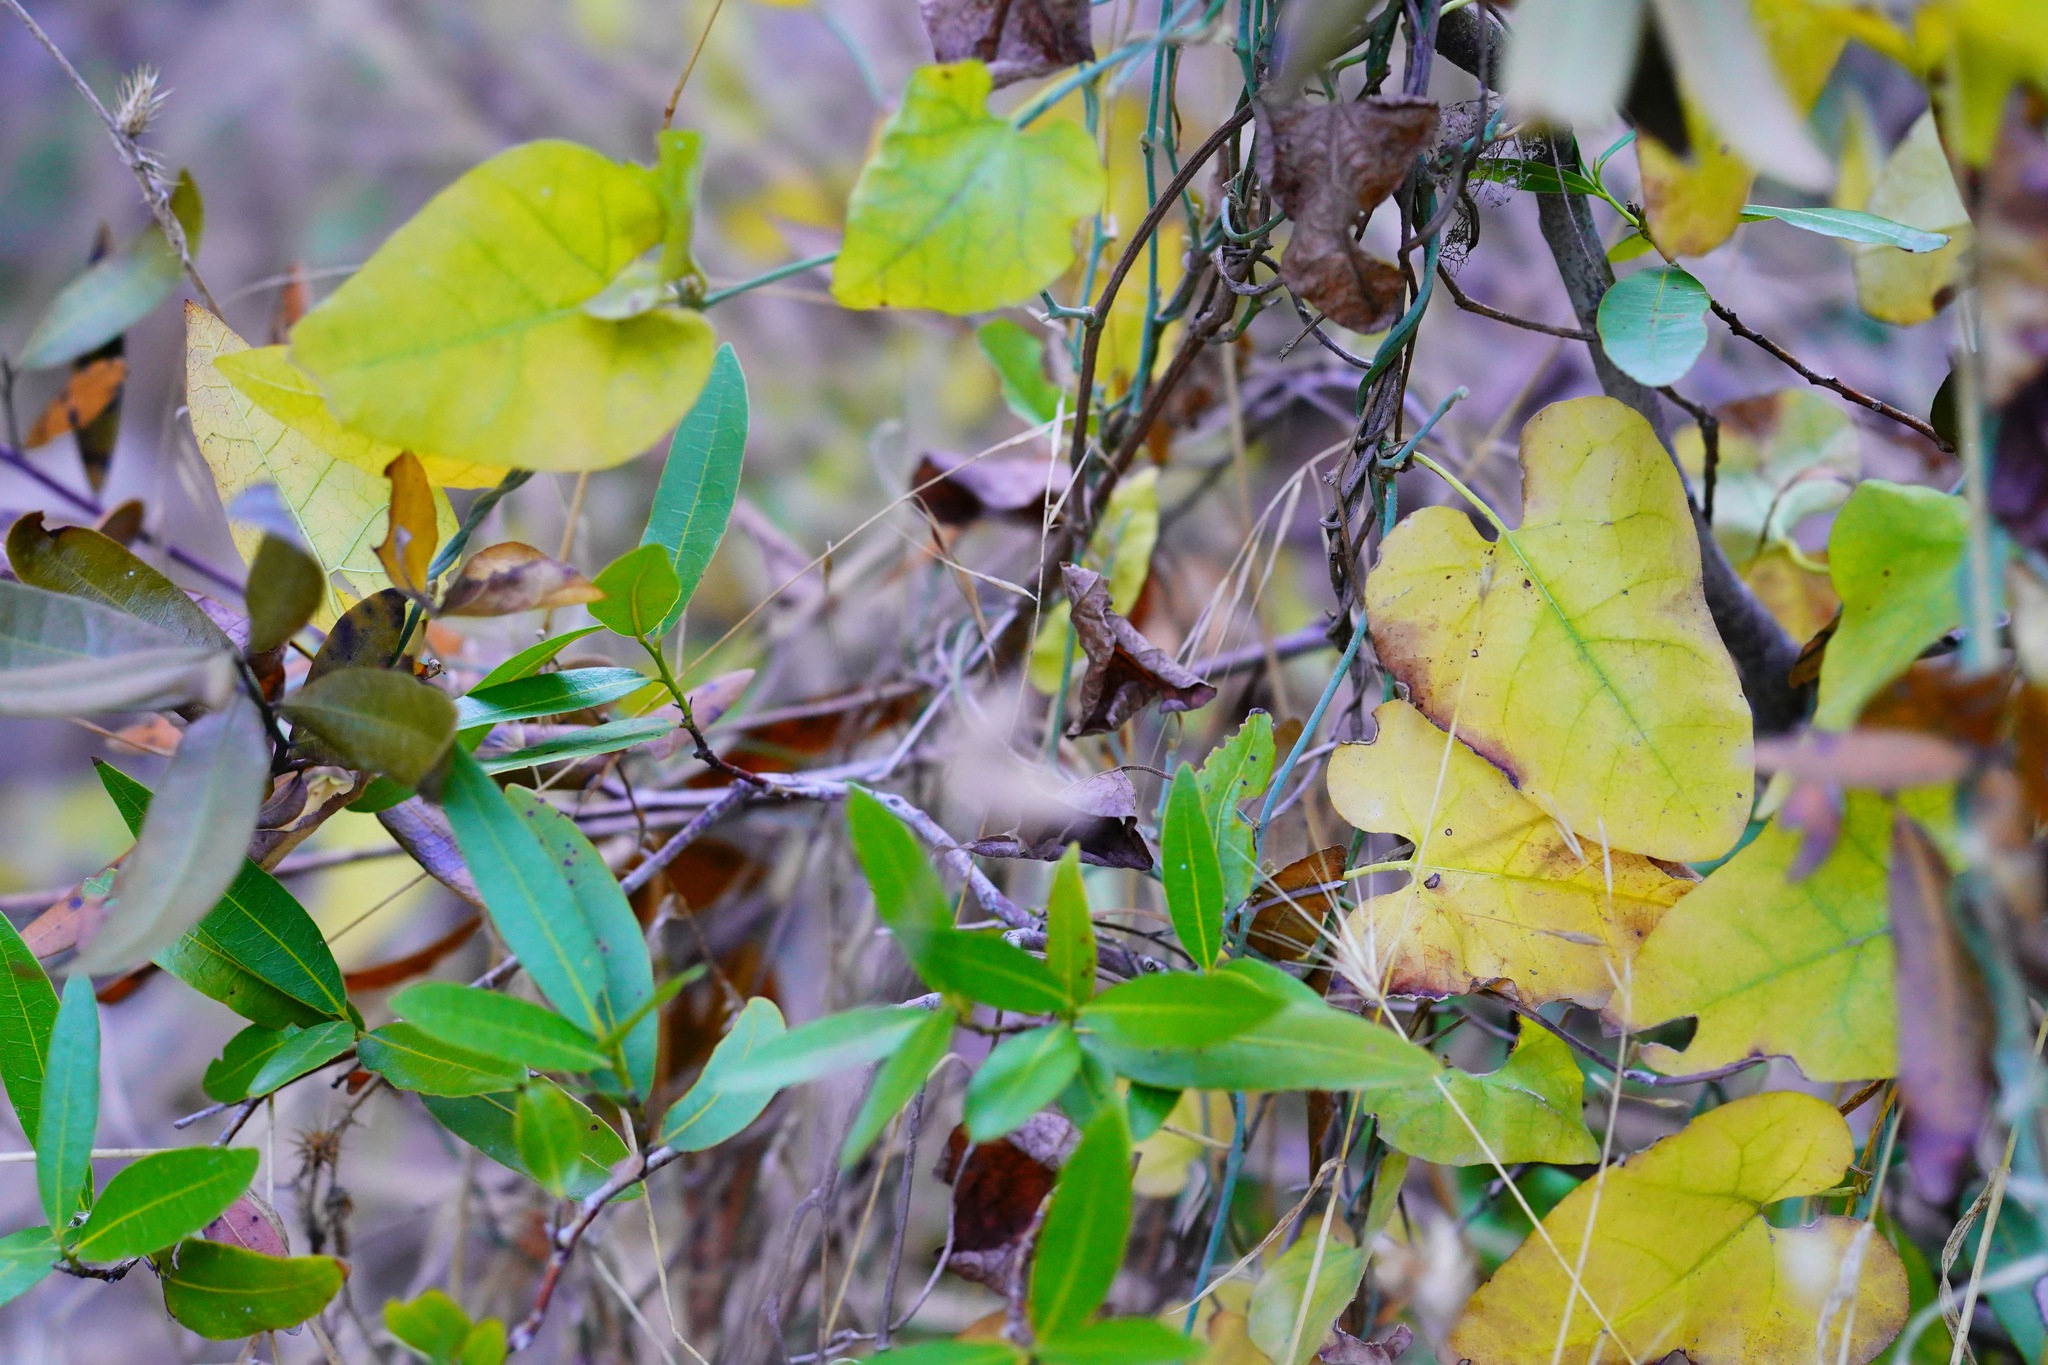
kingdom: Plantae
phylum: Tracheophyta
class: Magnoliopsida
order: Piperales
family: Aristolochiaceae
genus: Isotrema
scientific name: Isotrema californicum
